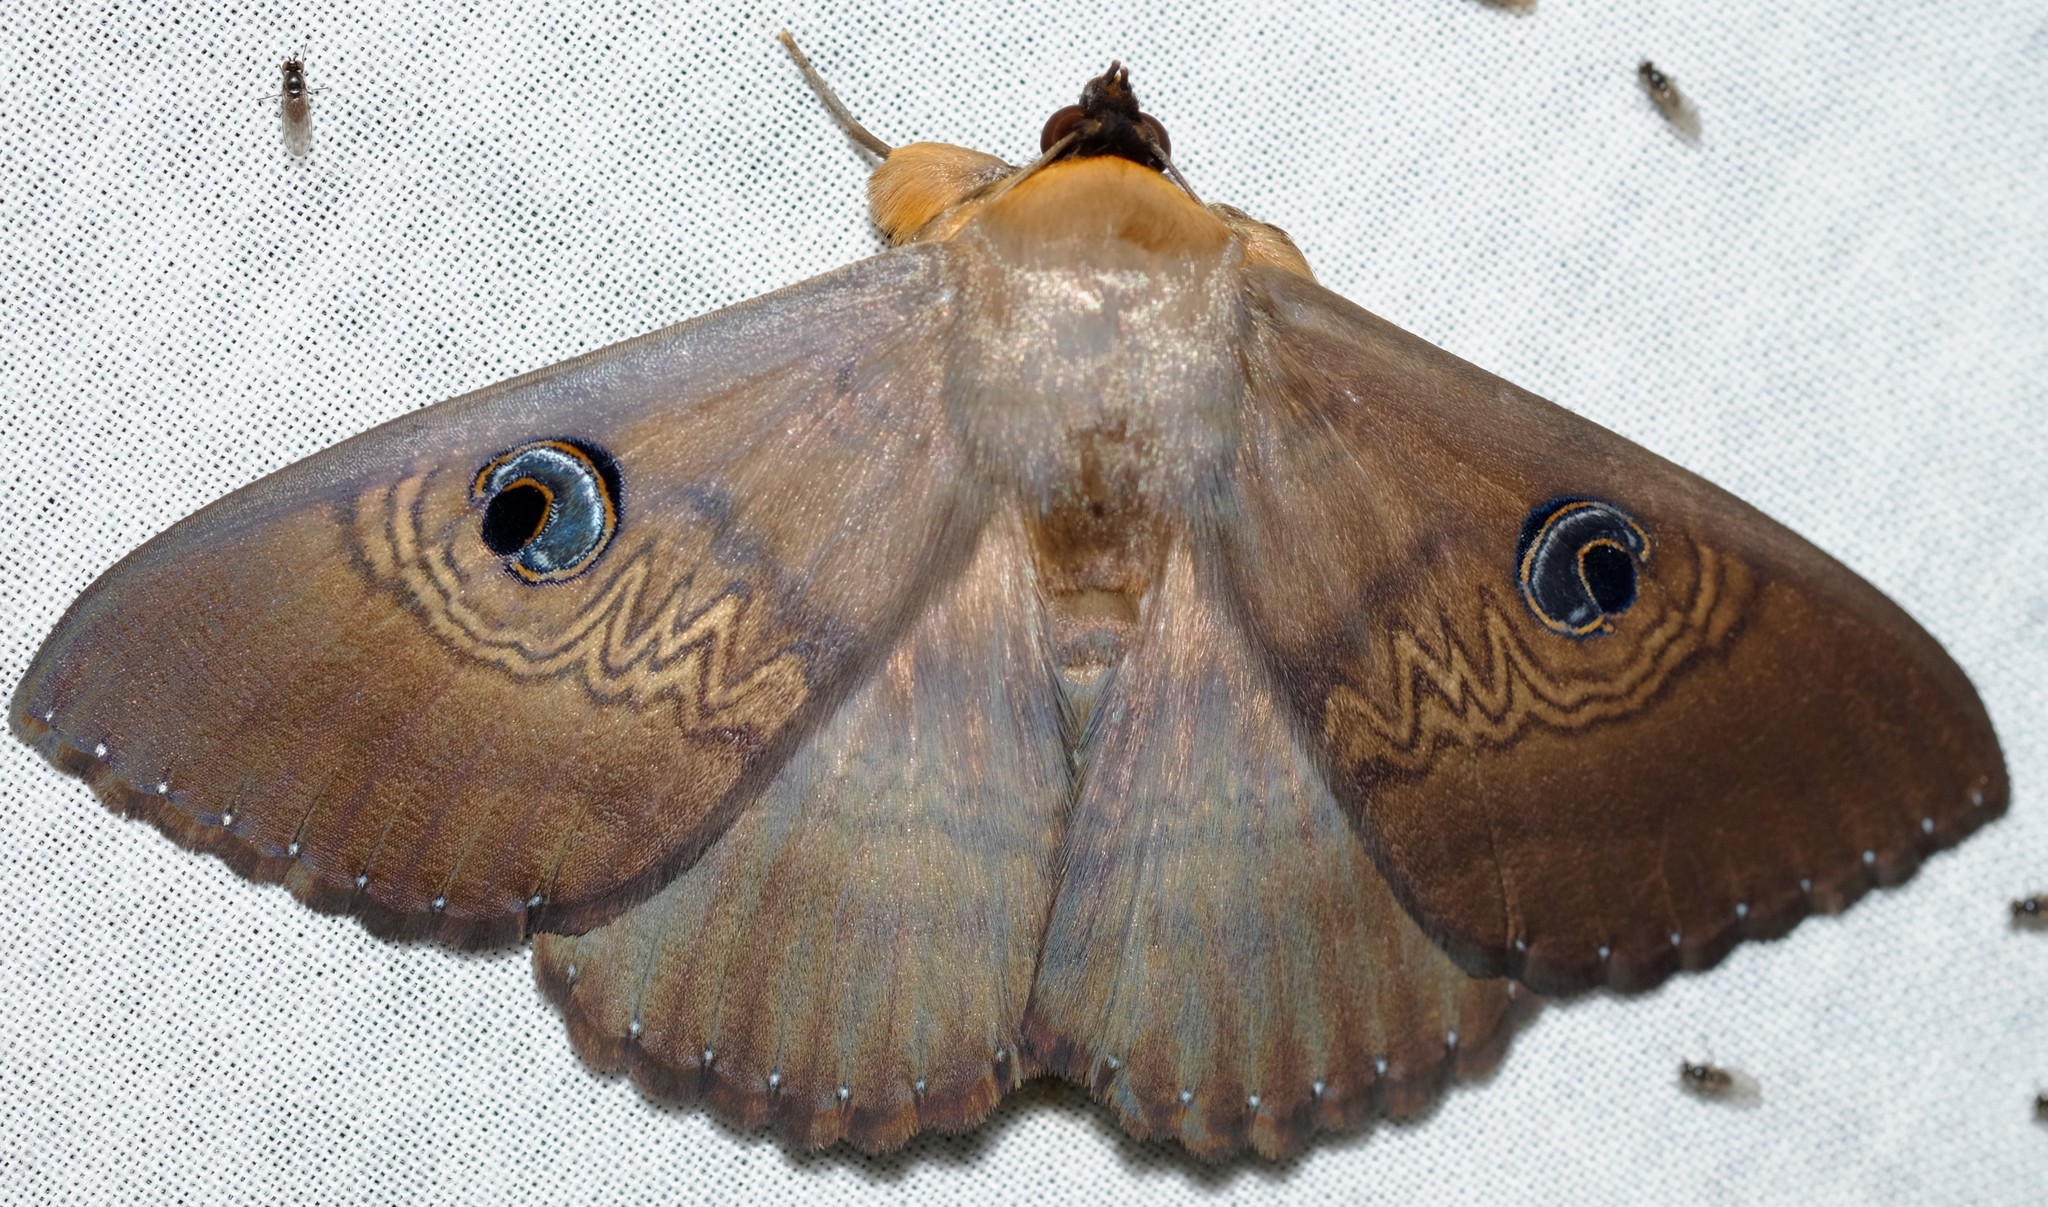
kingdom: Animalia
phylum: Arthropoda
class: Insecta
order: Lepidoptera
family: Erebidae
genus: Dasypodia
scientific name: Dasypodia selenophora
